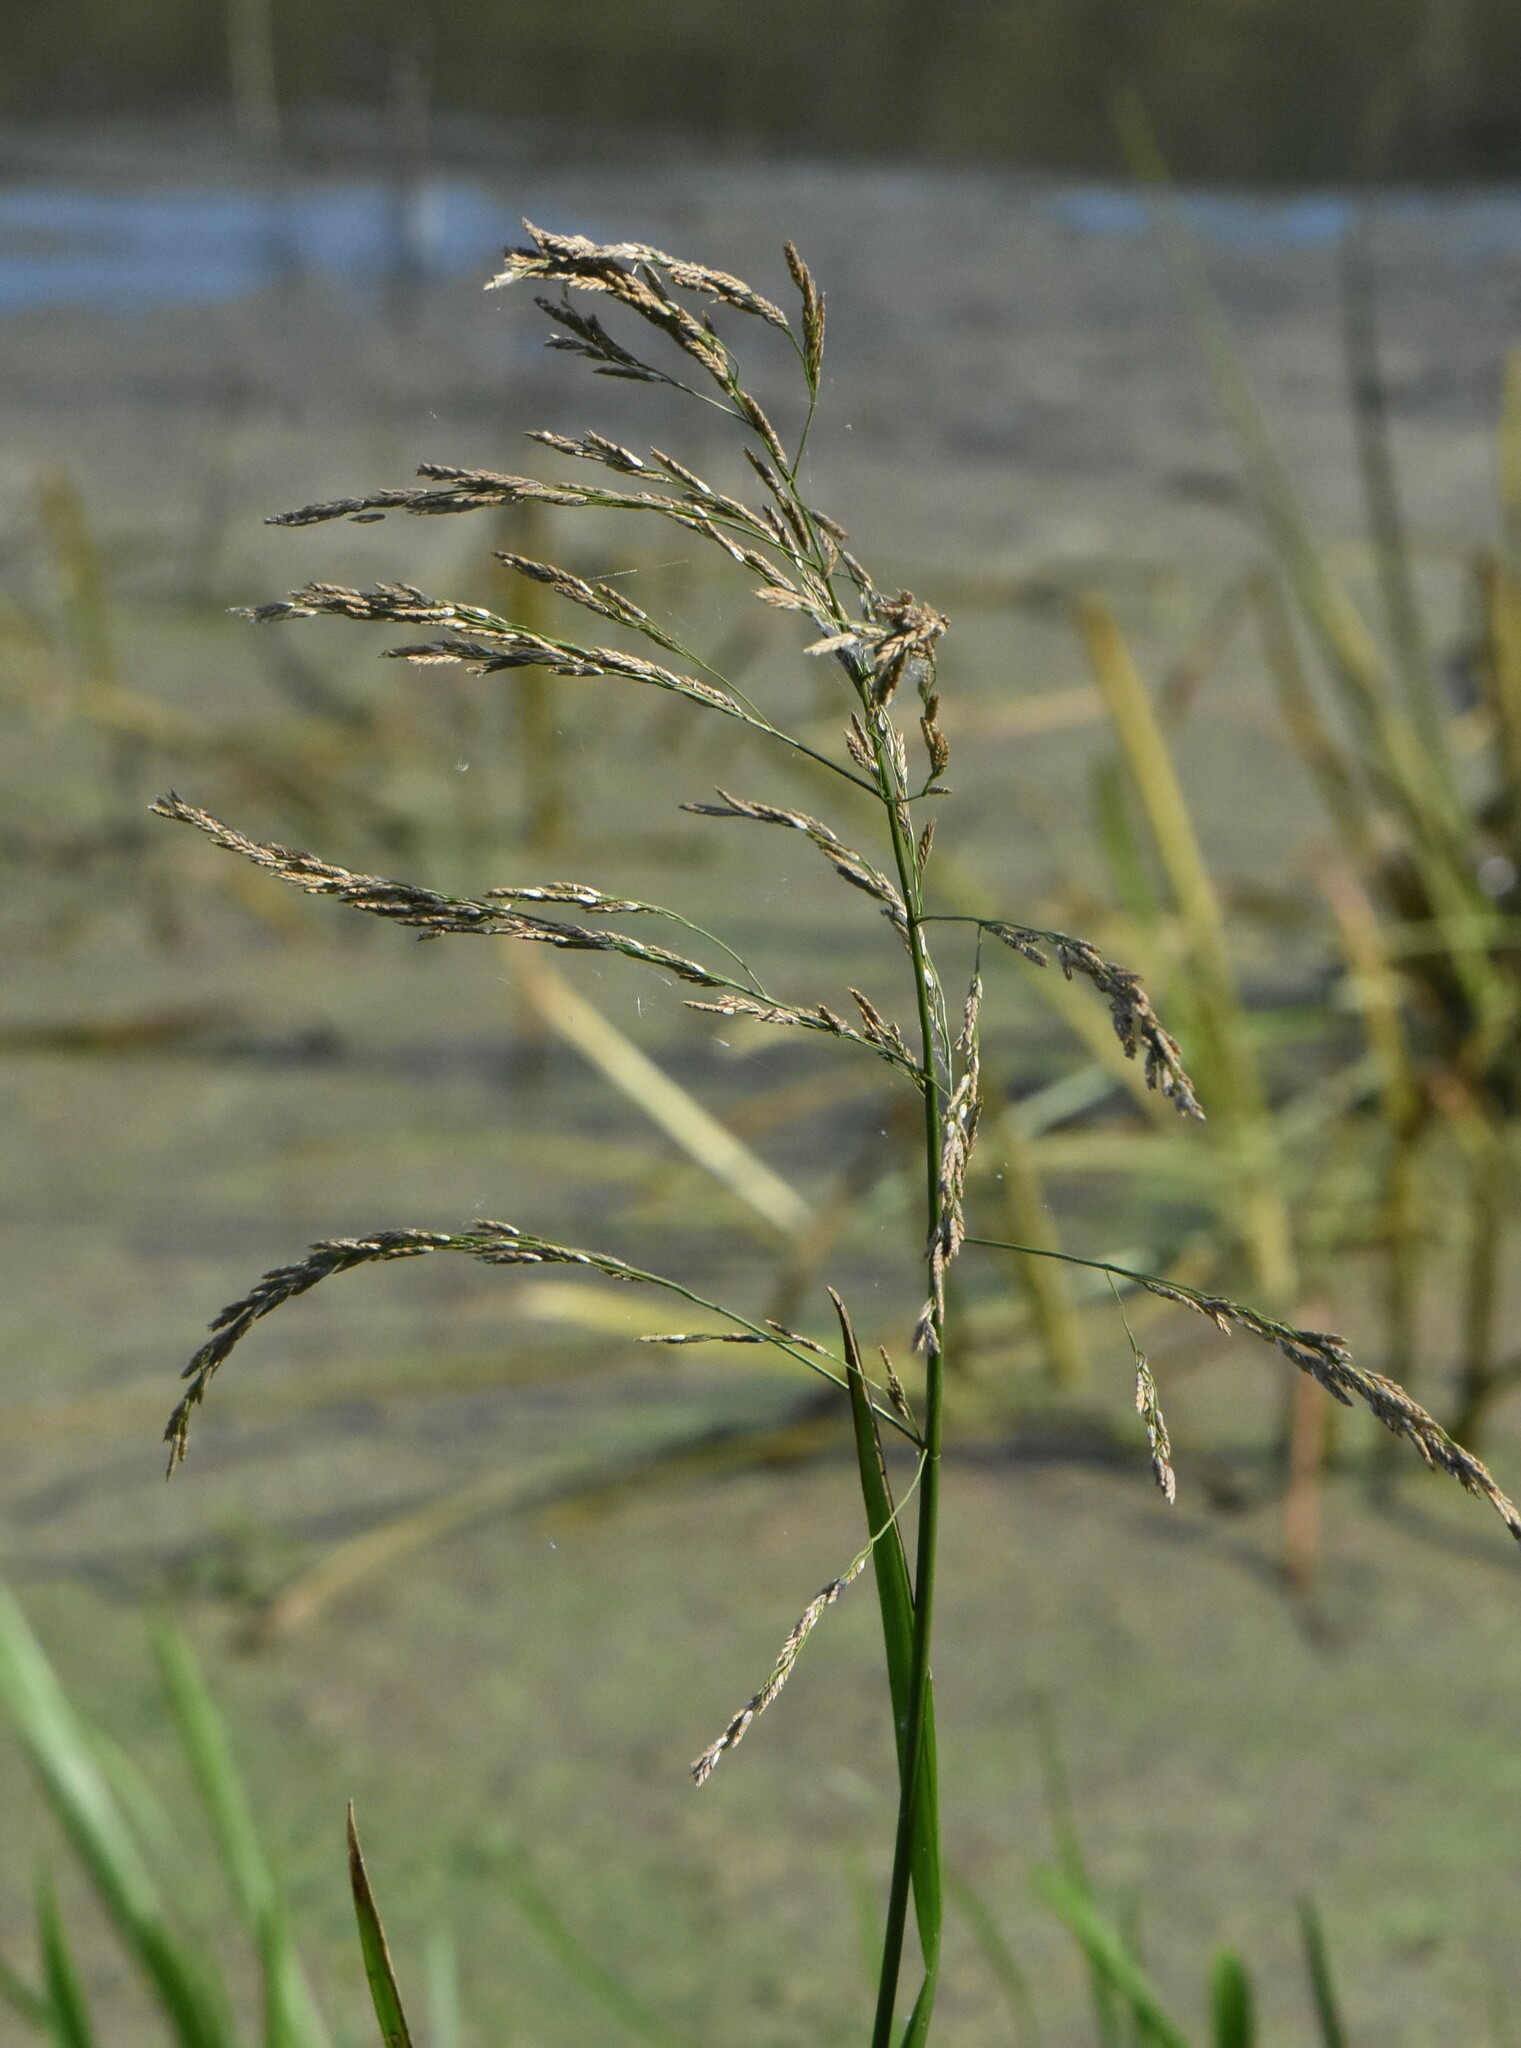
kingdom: Plantae
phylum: Tracheophyta
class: Liliopsida
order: Poales
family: Poaceae
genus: Glyceria
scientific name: Glyceria maxima
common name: Reed mannagrass
